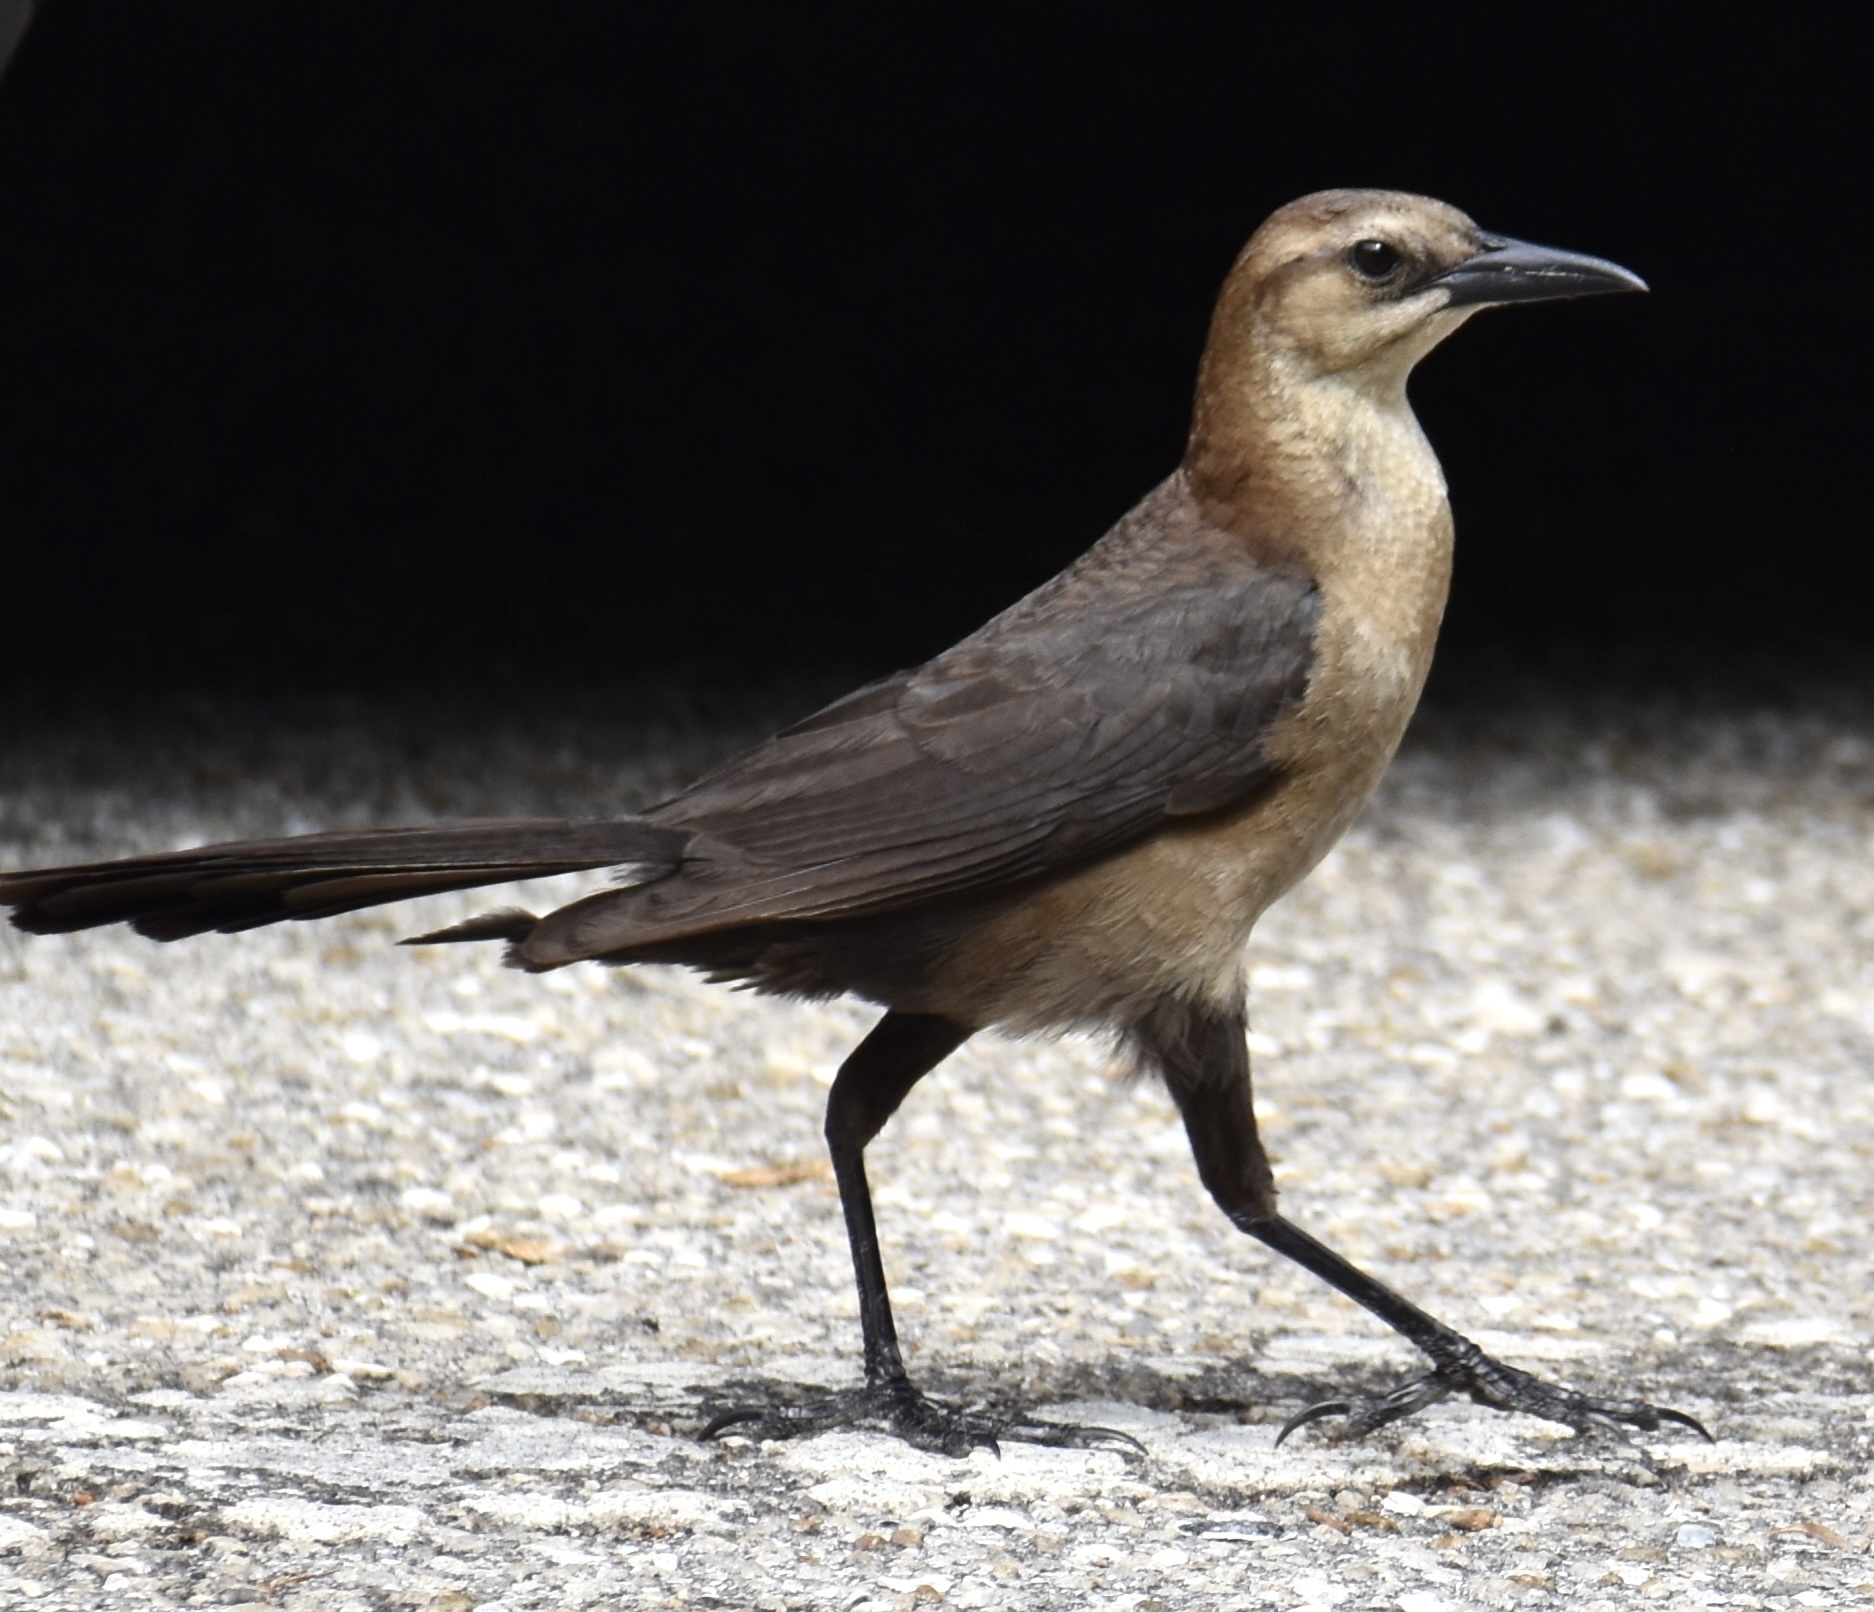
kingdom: Animalia
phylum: Chordata
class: Aves
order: Passeriformes
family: Icteridae
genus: Quiscalus
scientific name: Quiscalus major
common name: Boat-tailed grackle
